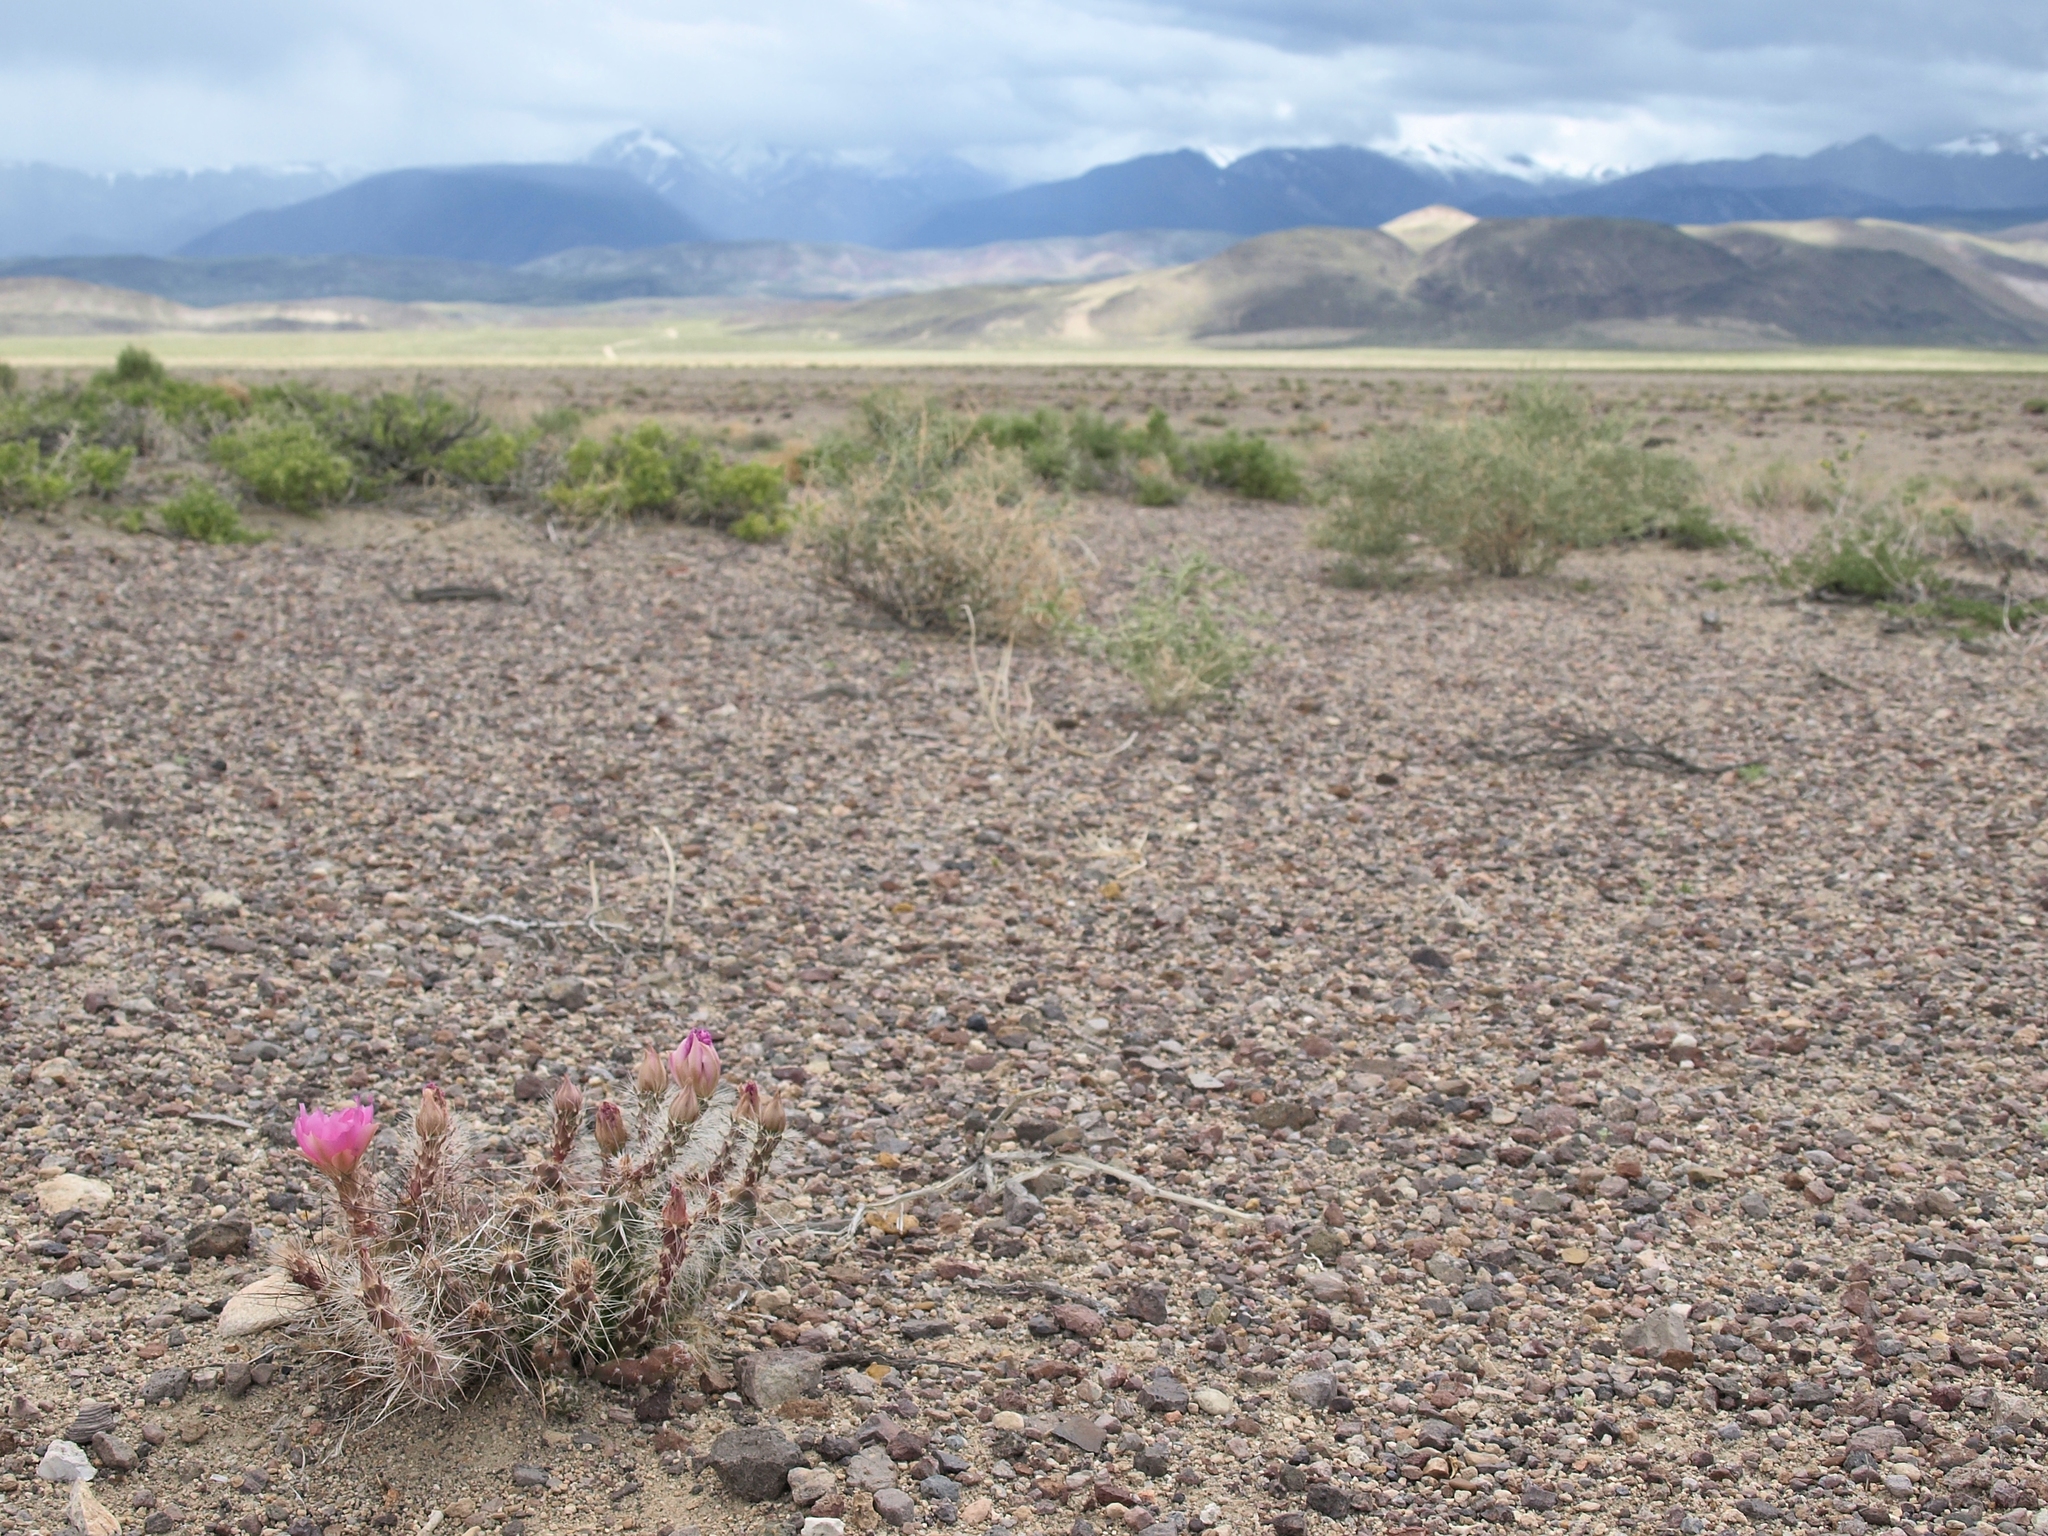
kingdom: Plantae
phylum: Tracheophyta
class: Magnoliopsida
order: Caryophyllales
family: Cactaceae
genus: Micropuntia
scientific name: Micropuntia pulchella
